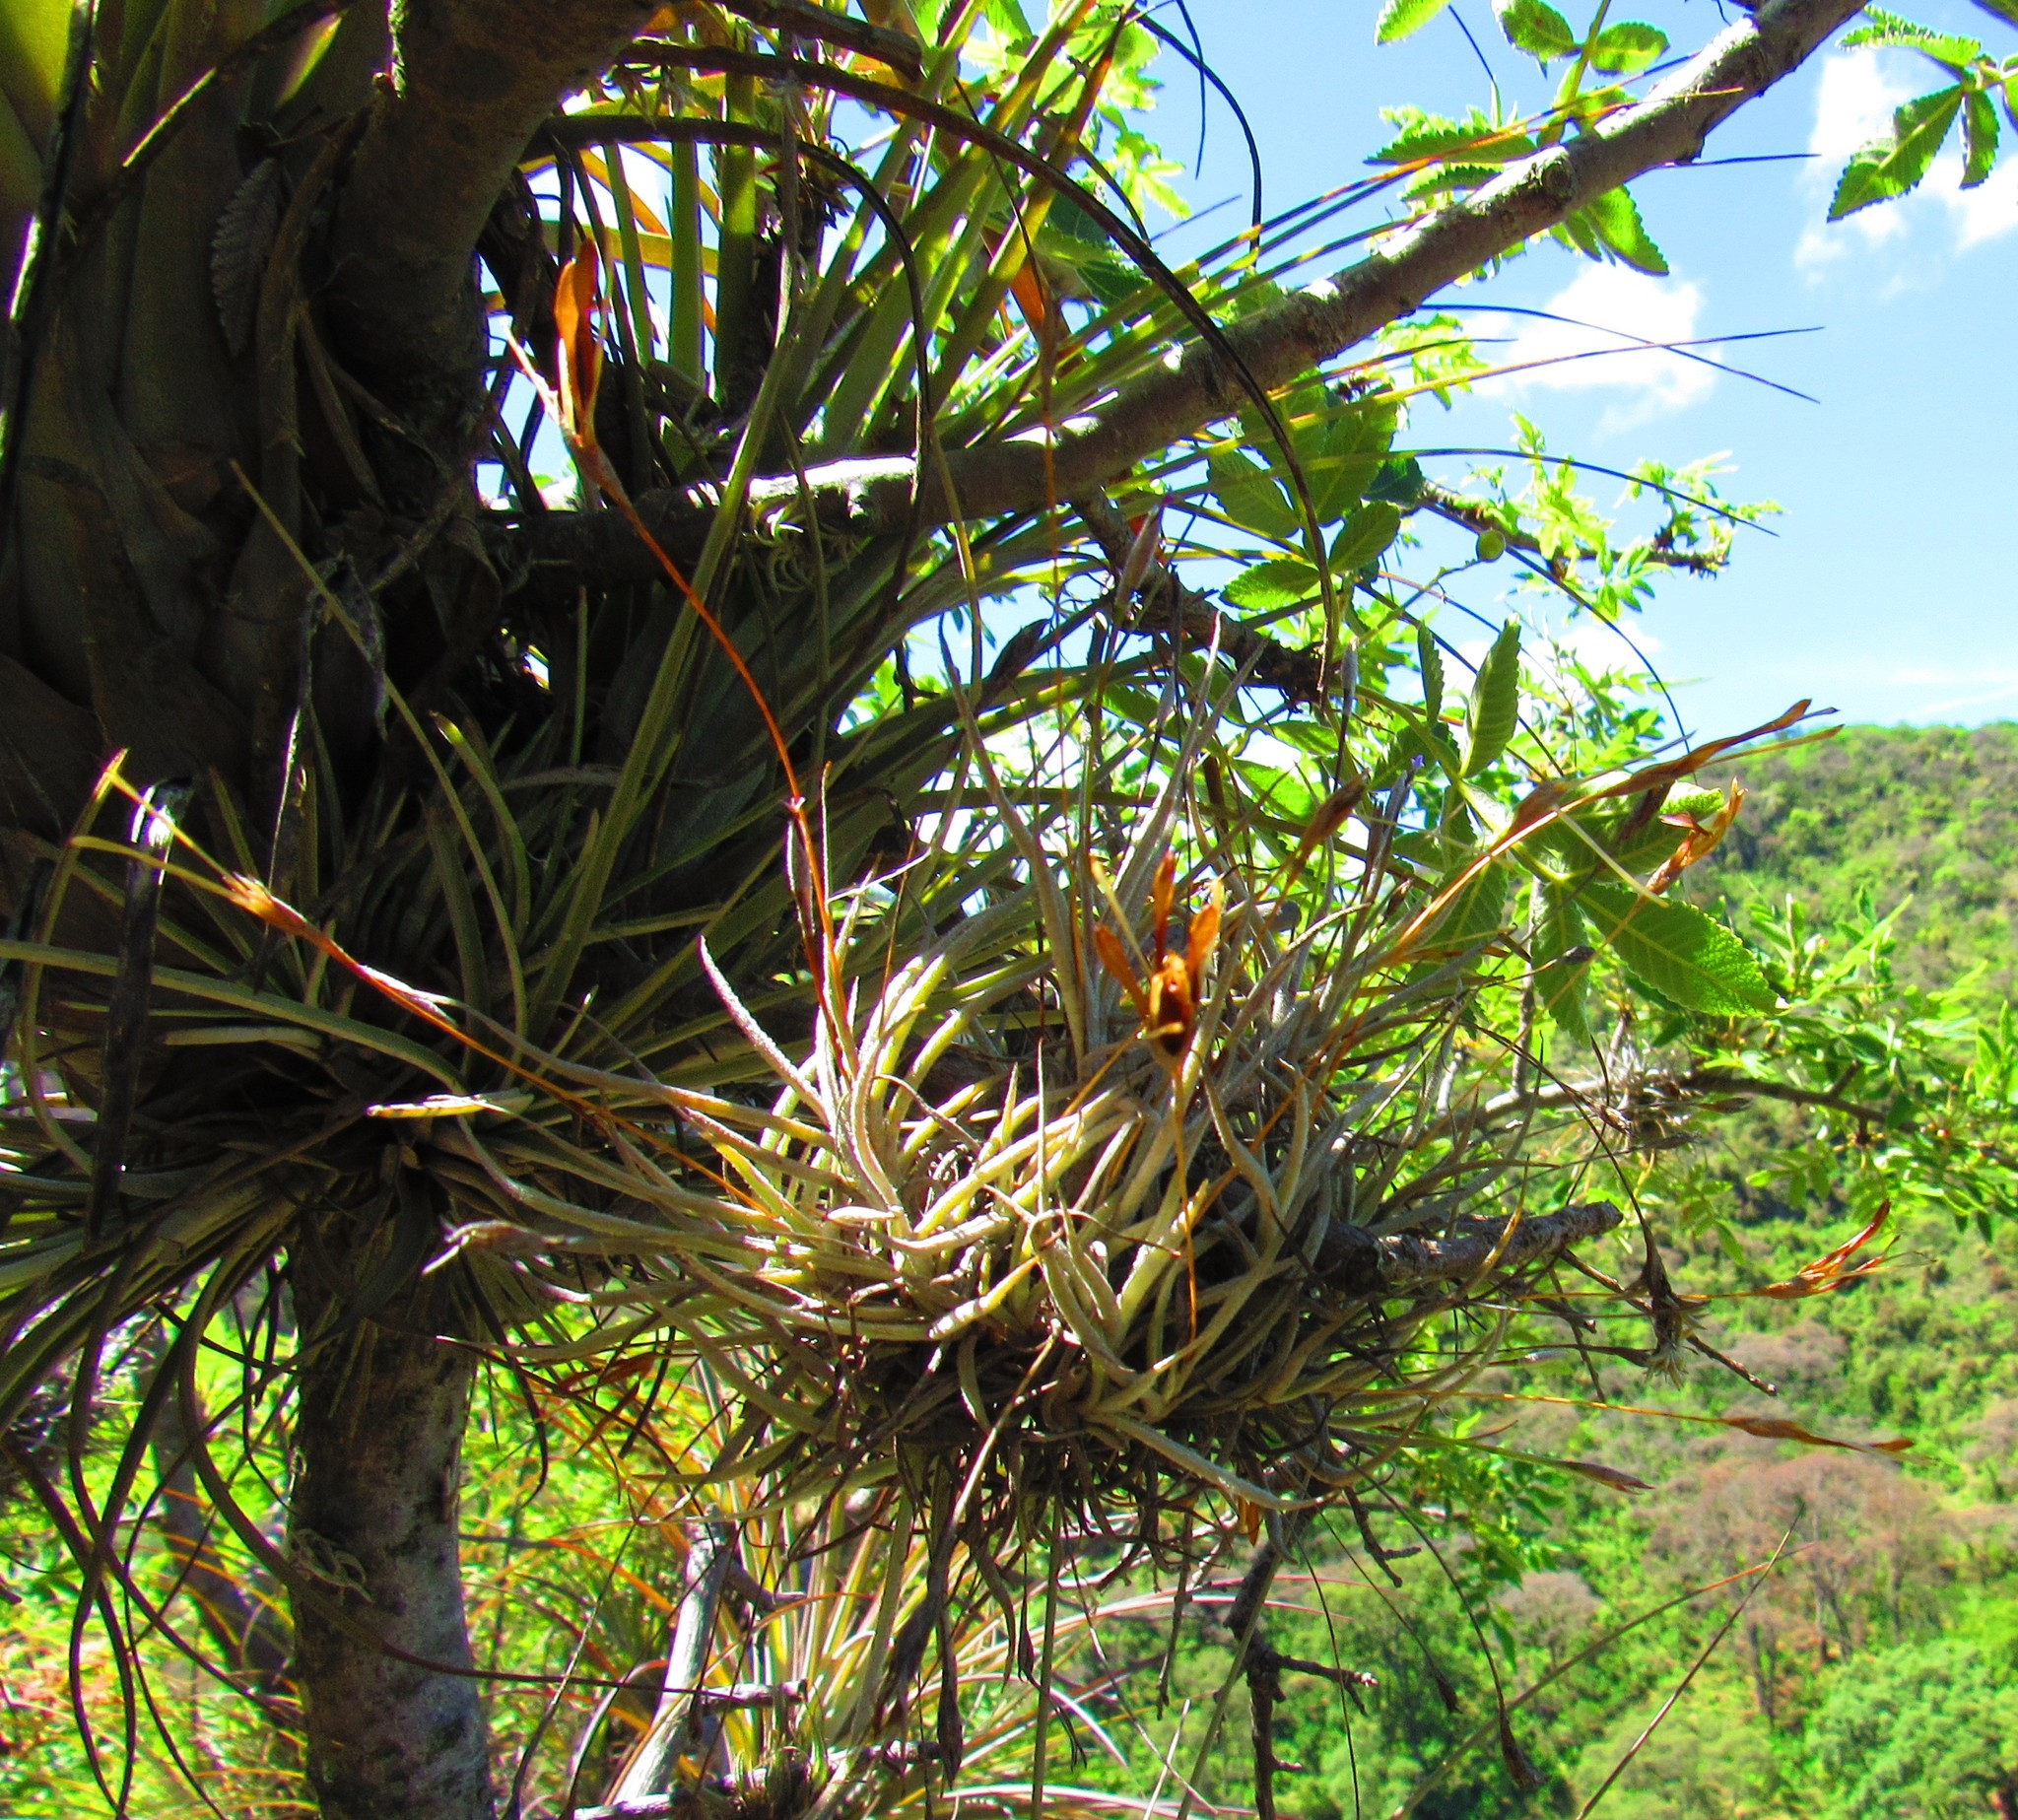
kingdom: Plantae
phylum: Tracheophyta
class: Liliopsida
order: Poales
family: Bromeliaceae
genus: Tillandsia
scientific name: Tillandsia schiedeana
